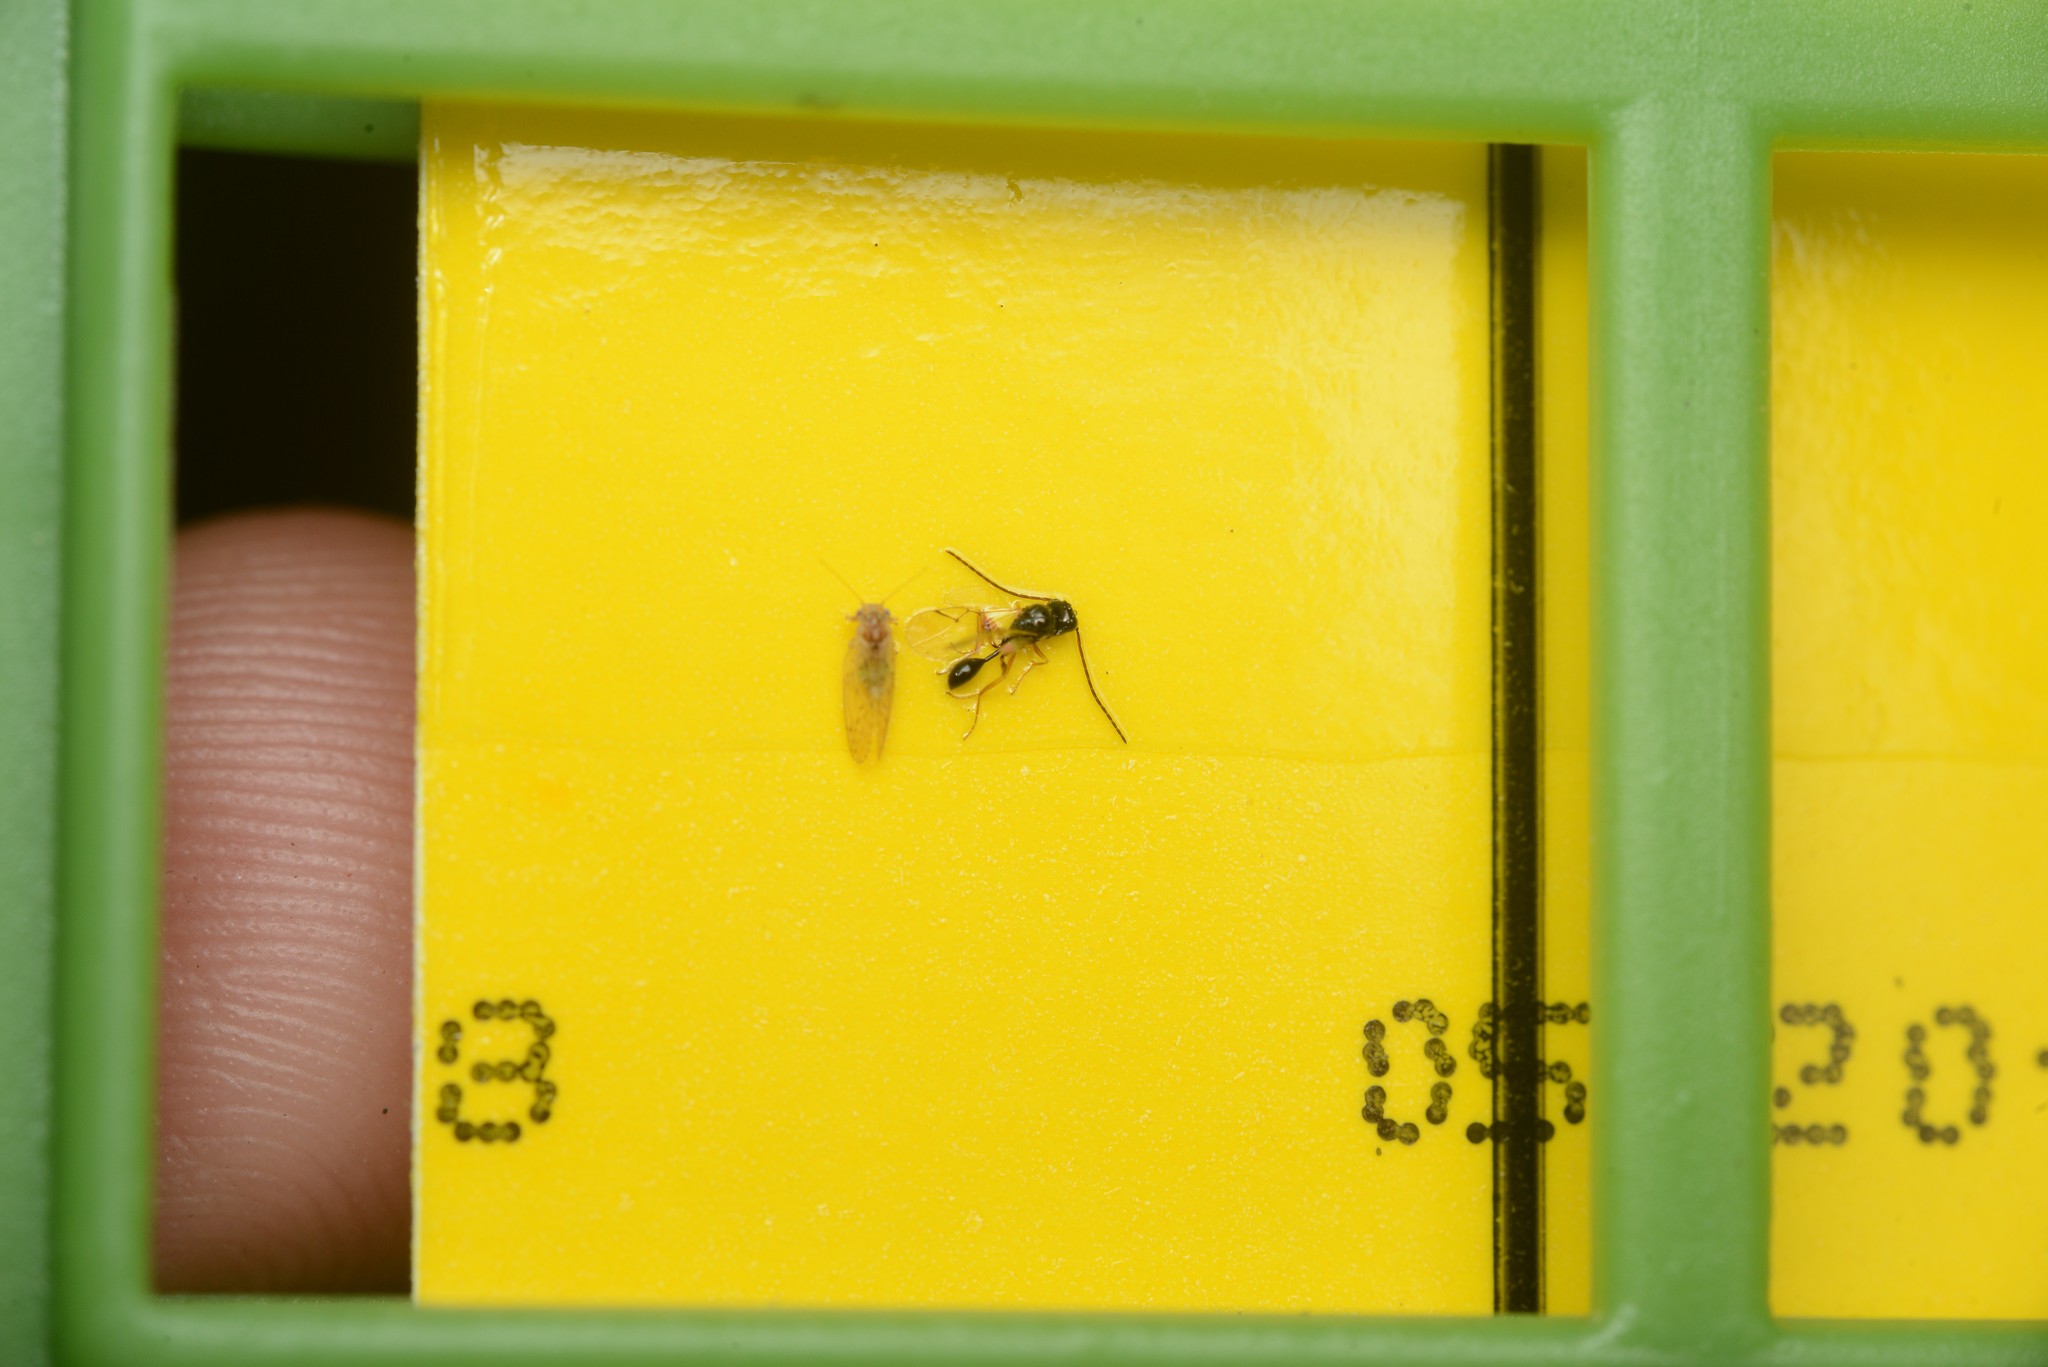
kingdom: Animalia
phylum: Arthropoda
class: Insecta
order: Hymenoptera
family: Figitidae
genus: Anacharis
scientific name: Anacharis zealandica
